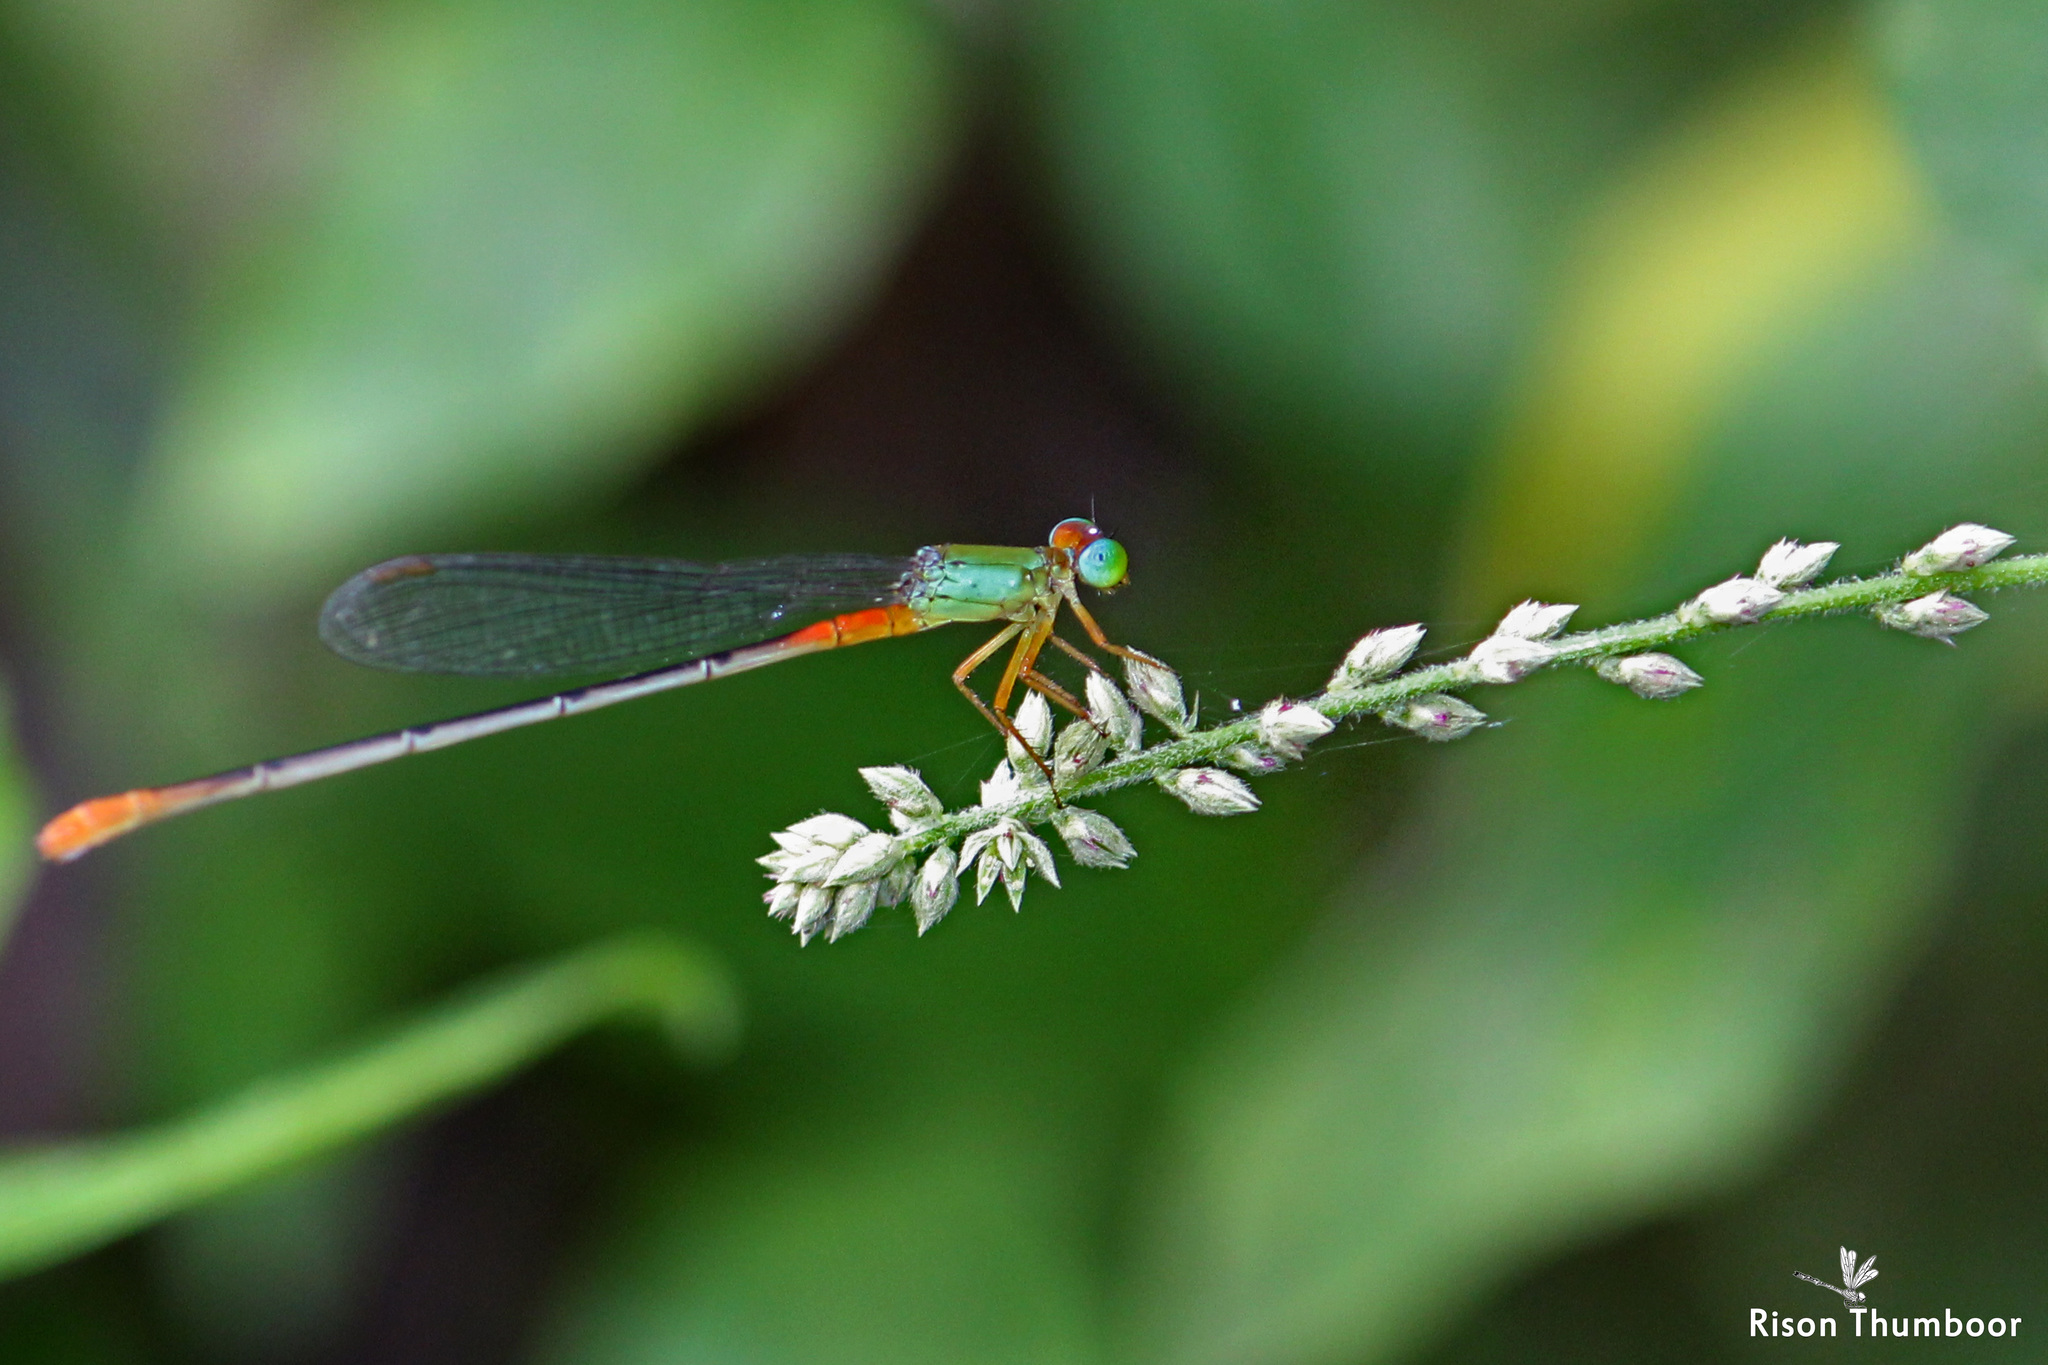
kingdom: Animalia
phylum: Arthropoda
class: Insecta
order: Odonata
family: Coenagrionidae
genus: Ceriagrion
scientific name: Ceriagrion cerinorubellum
